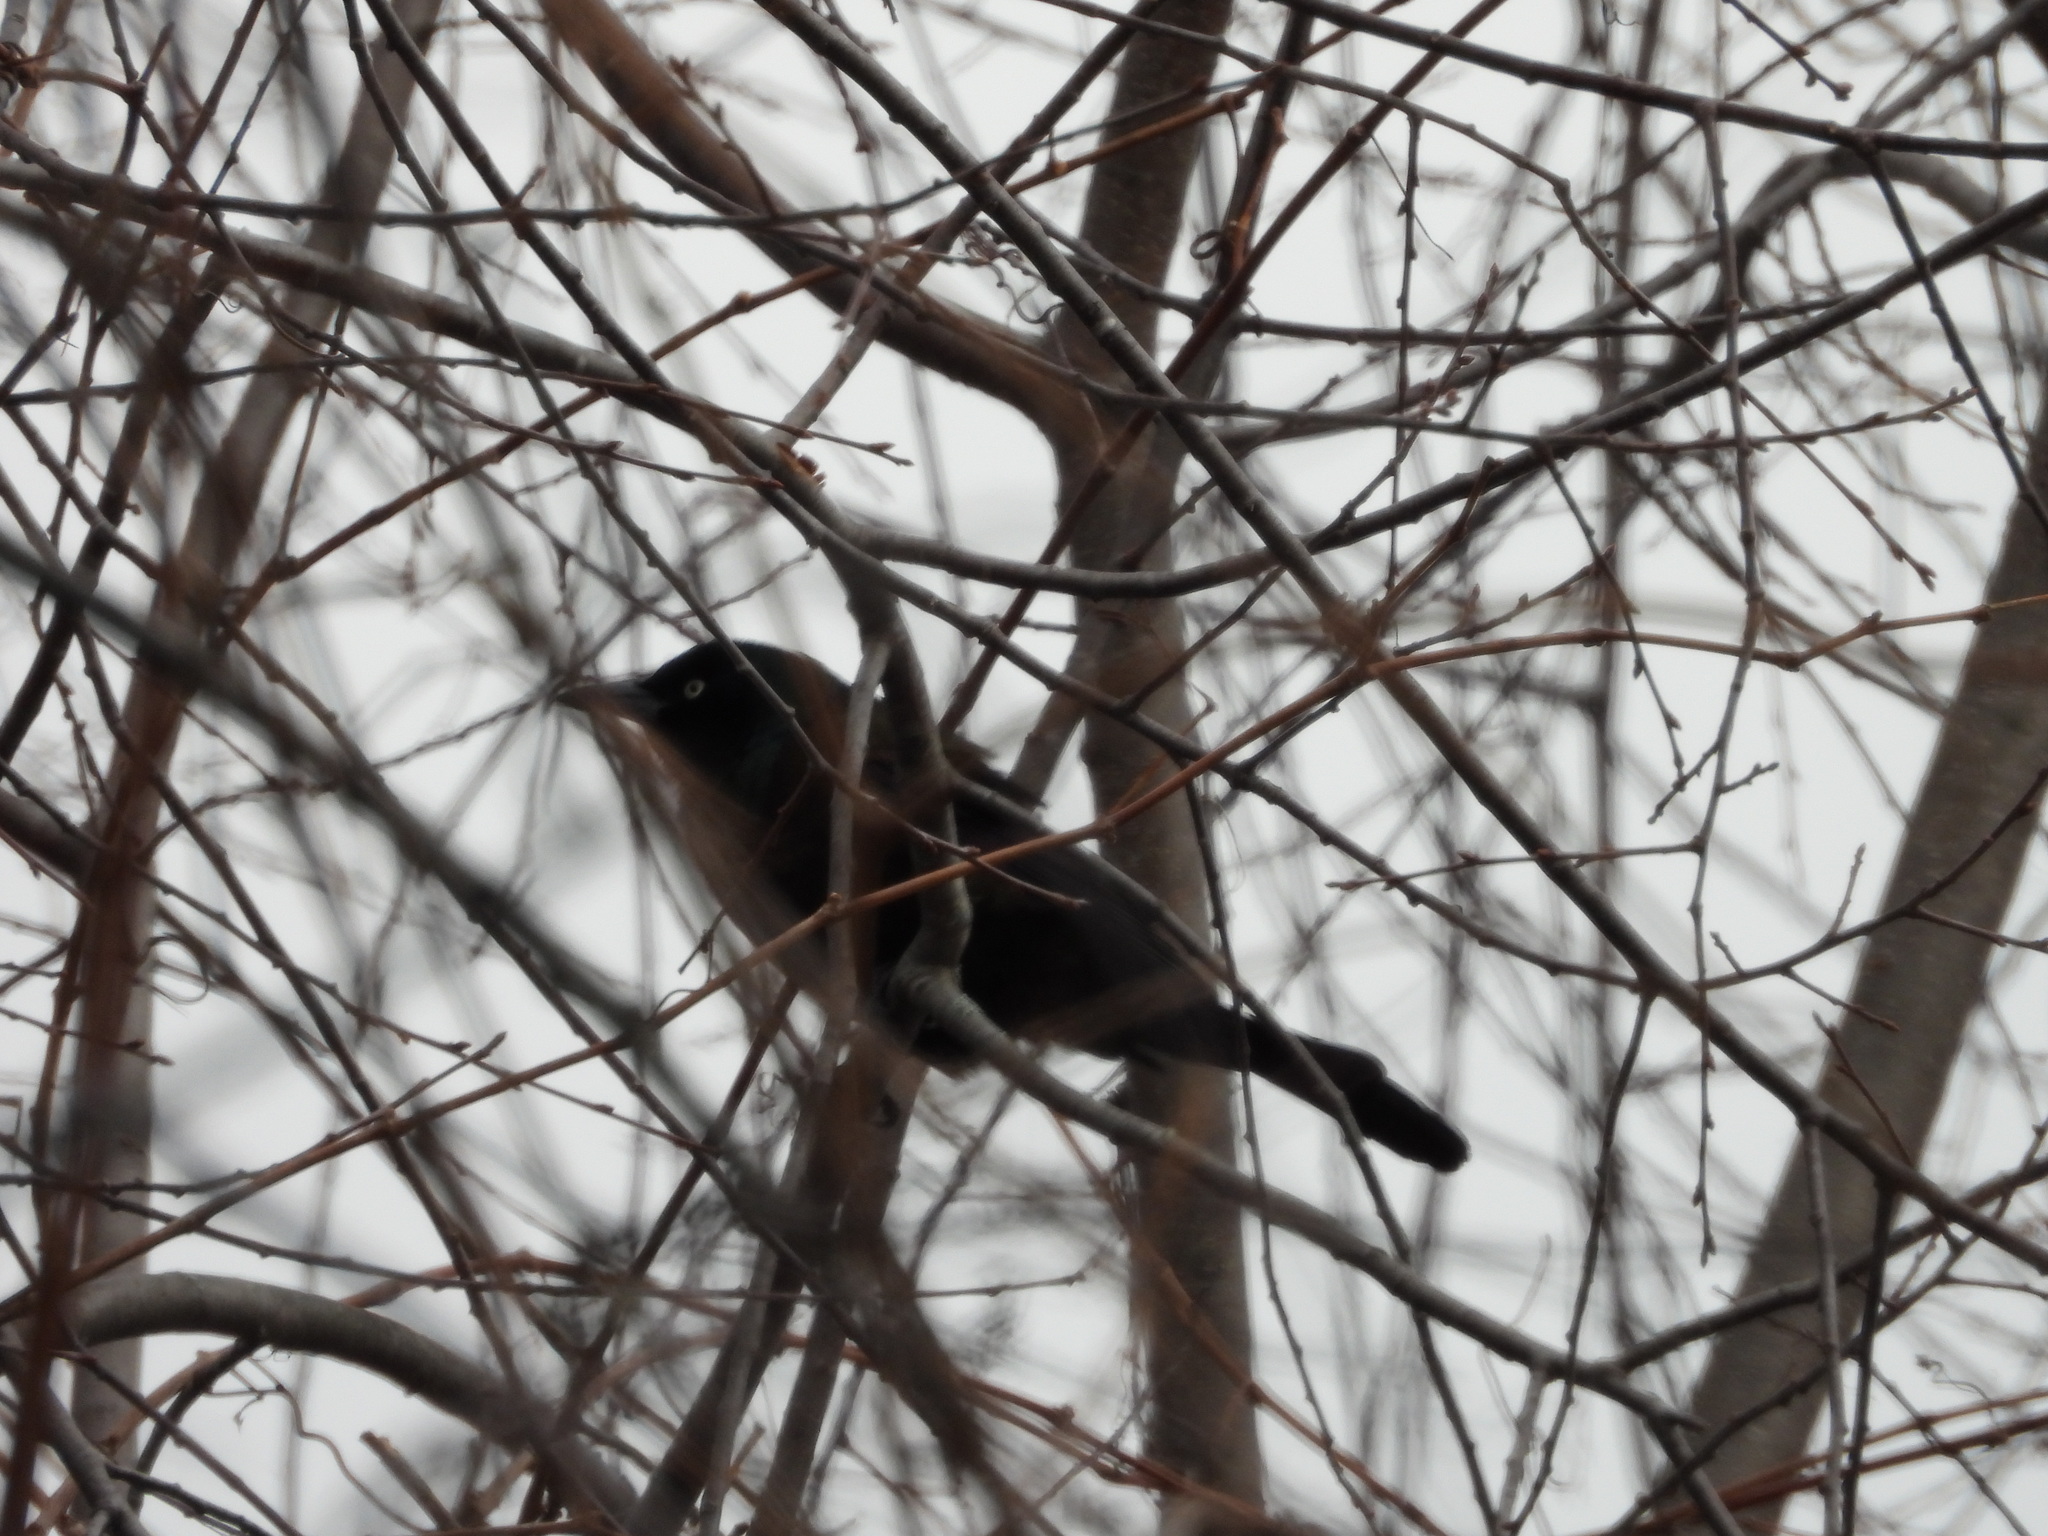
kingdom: Animalia
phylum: Chordata
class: Aves
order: Passeriformes
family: Icteridae
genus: Quiscalus
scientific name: Quiscalus quiscula
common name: Common grackle
